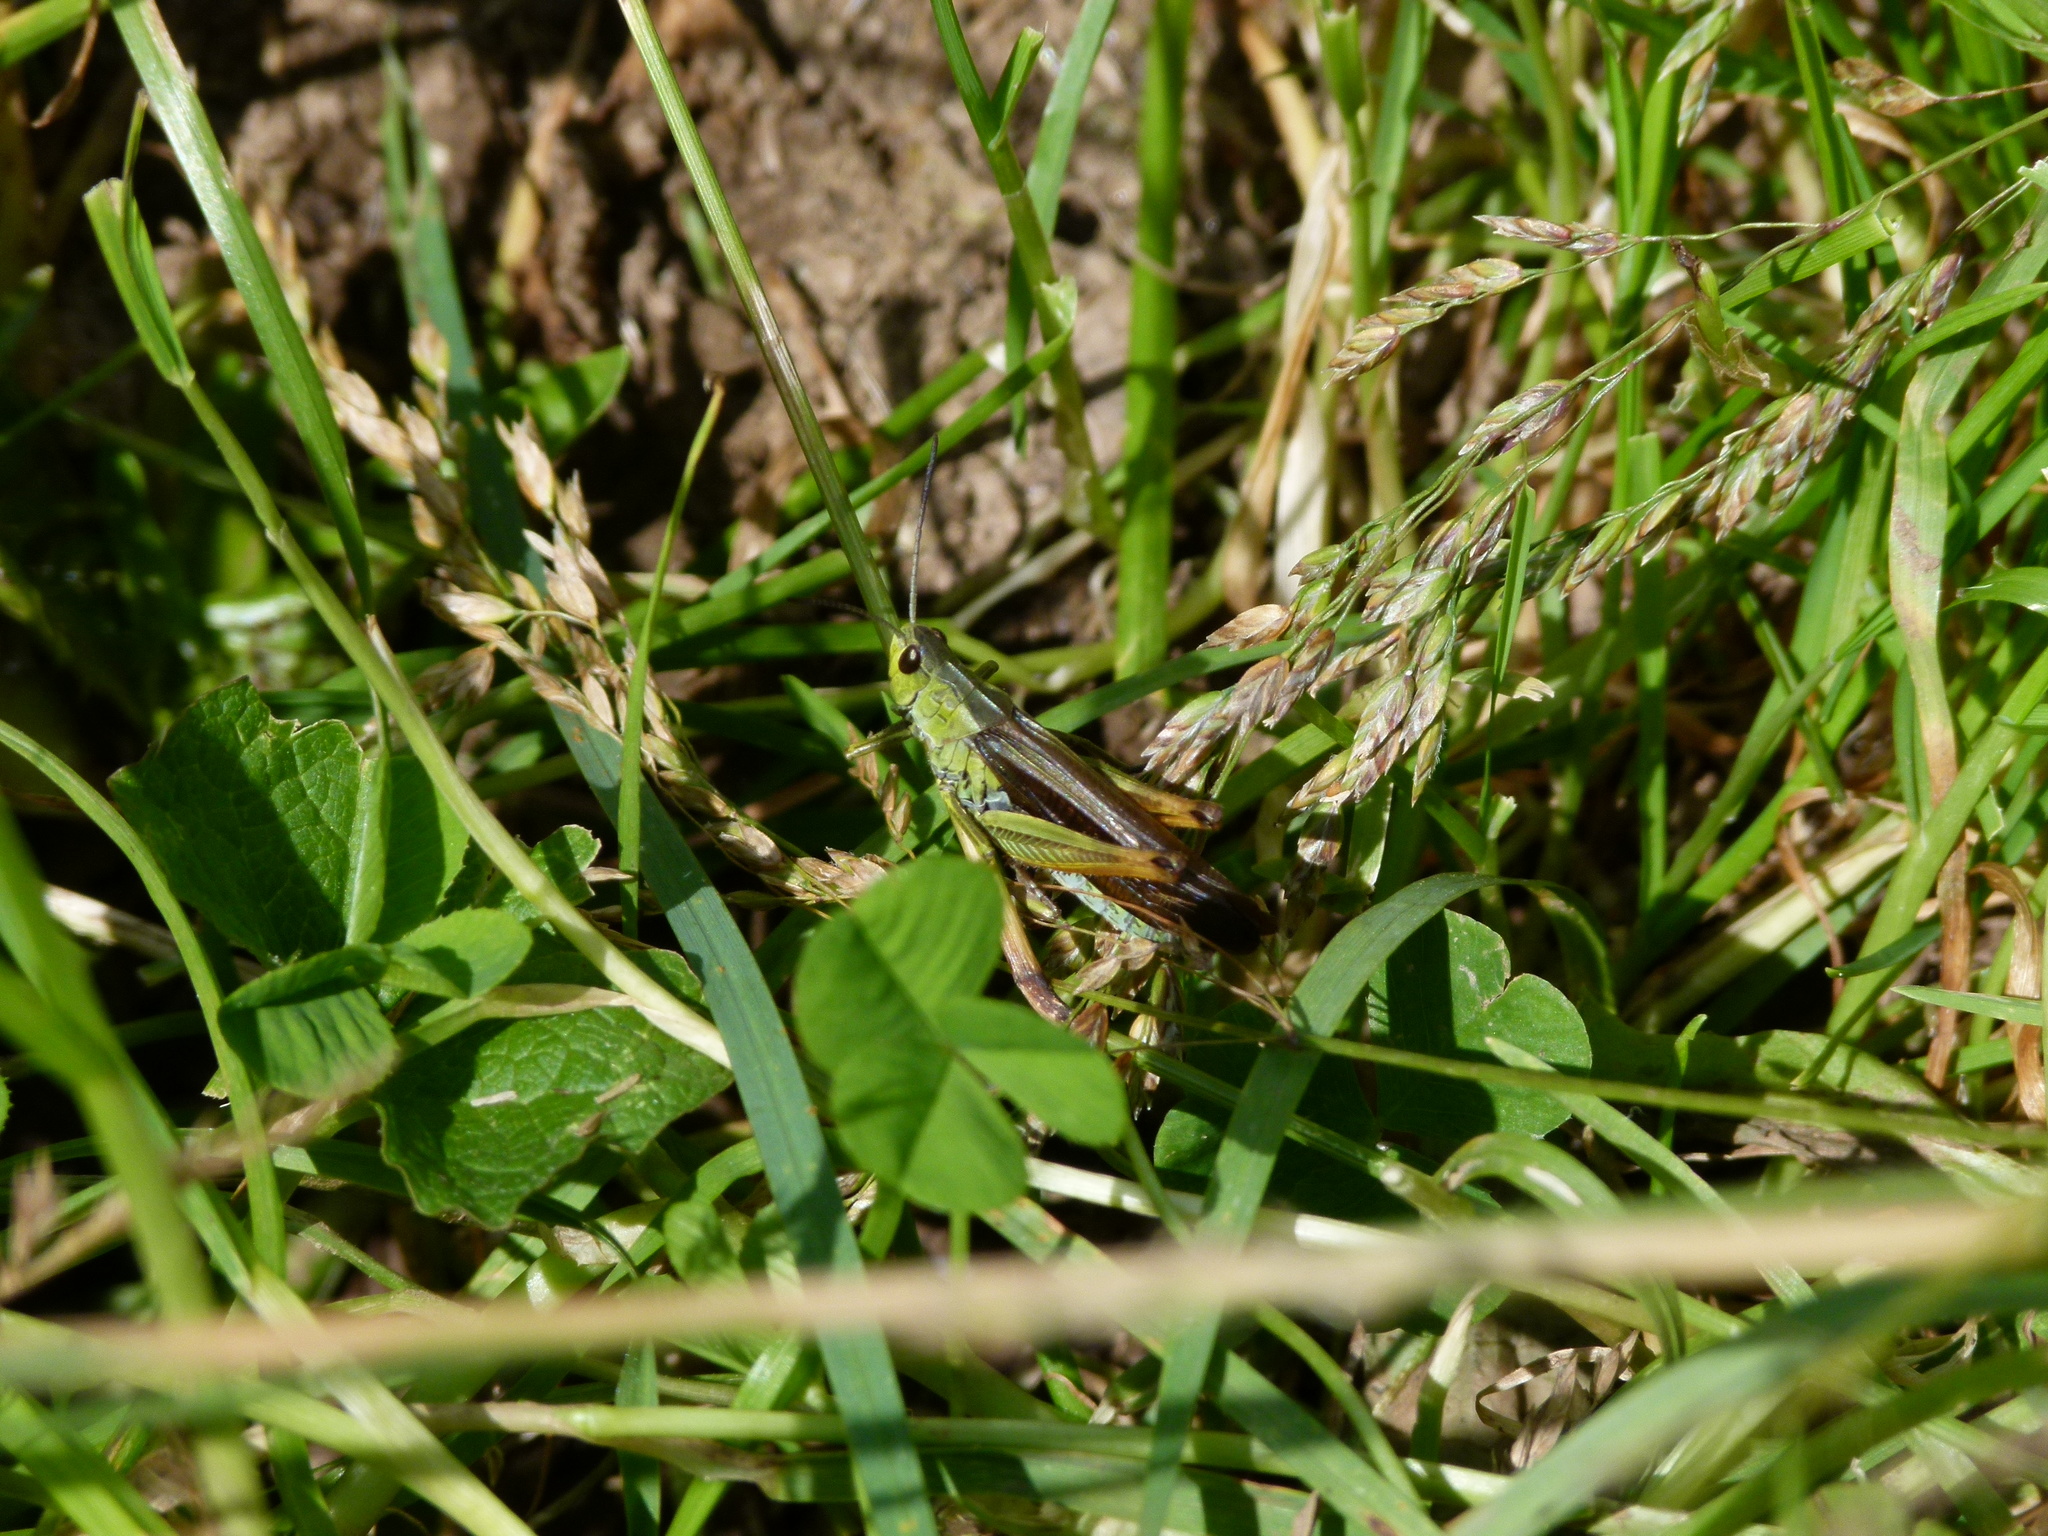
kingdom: Animalia
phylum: Arthropoda
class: Insecta
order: Orthoptera
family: Acrididae
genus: Stauroderus
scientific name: Stauroderus scalaris
